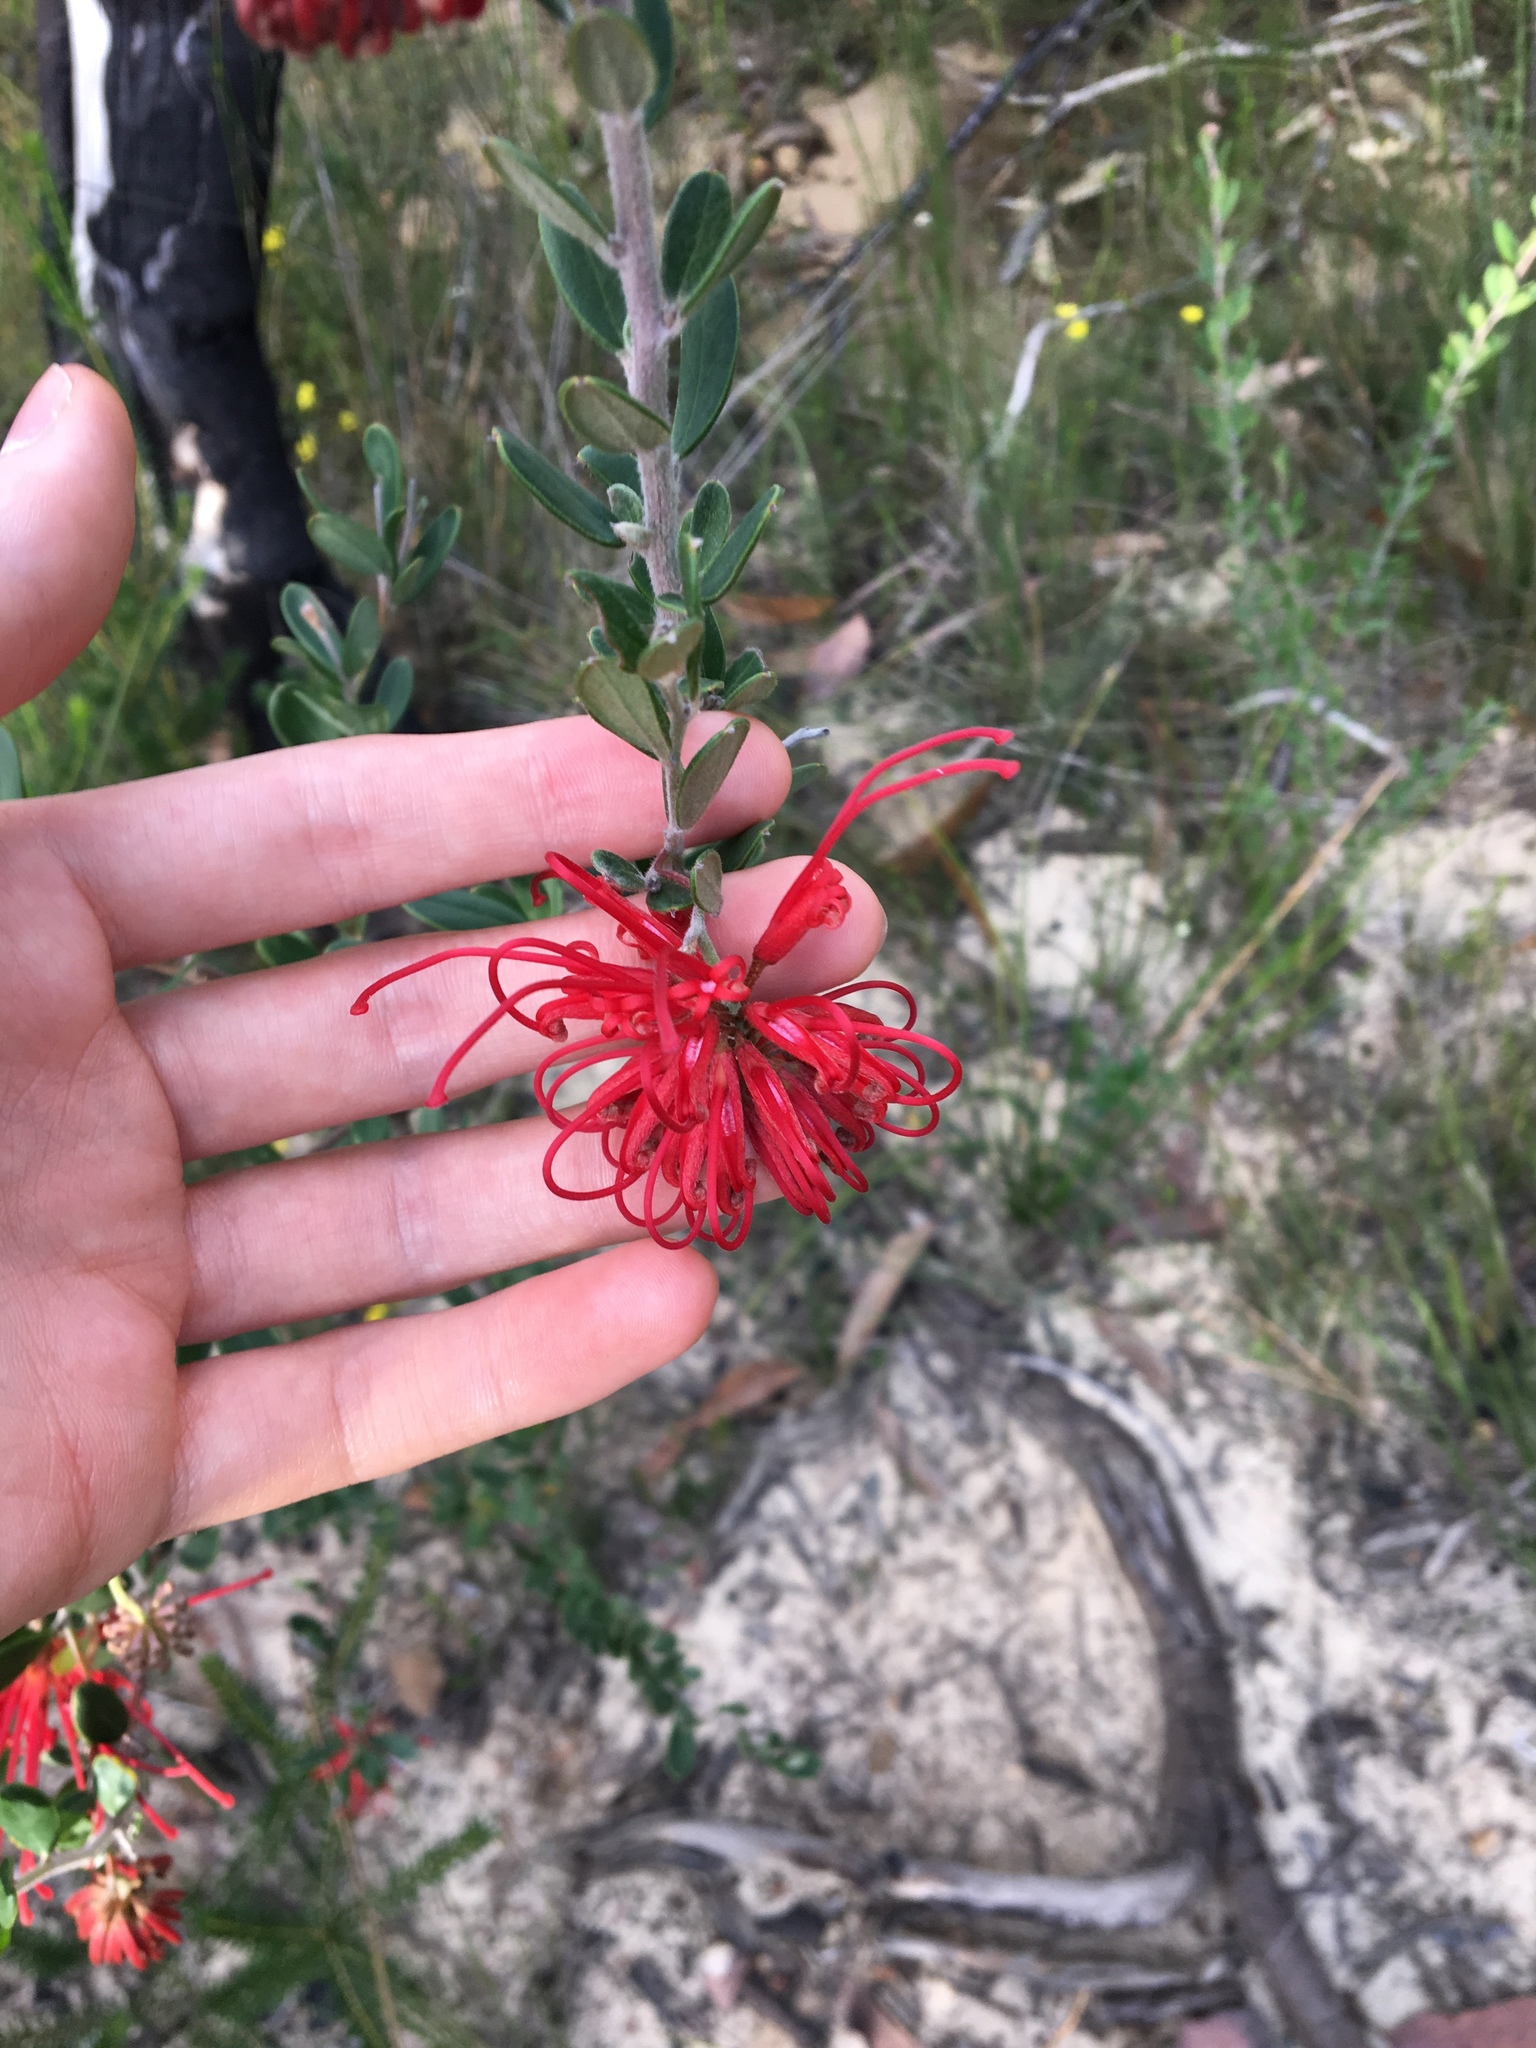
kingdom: Plantae
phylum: Tracheophyta
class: Magnoliopsida
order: Proteales
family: Proteaceae
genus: Grevillea
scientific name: Grevillea speciosa
